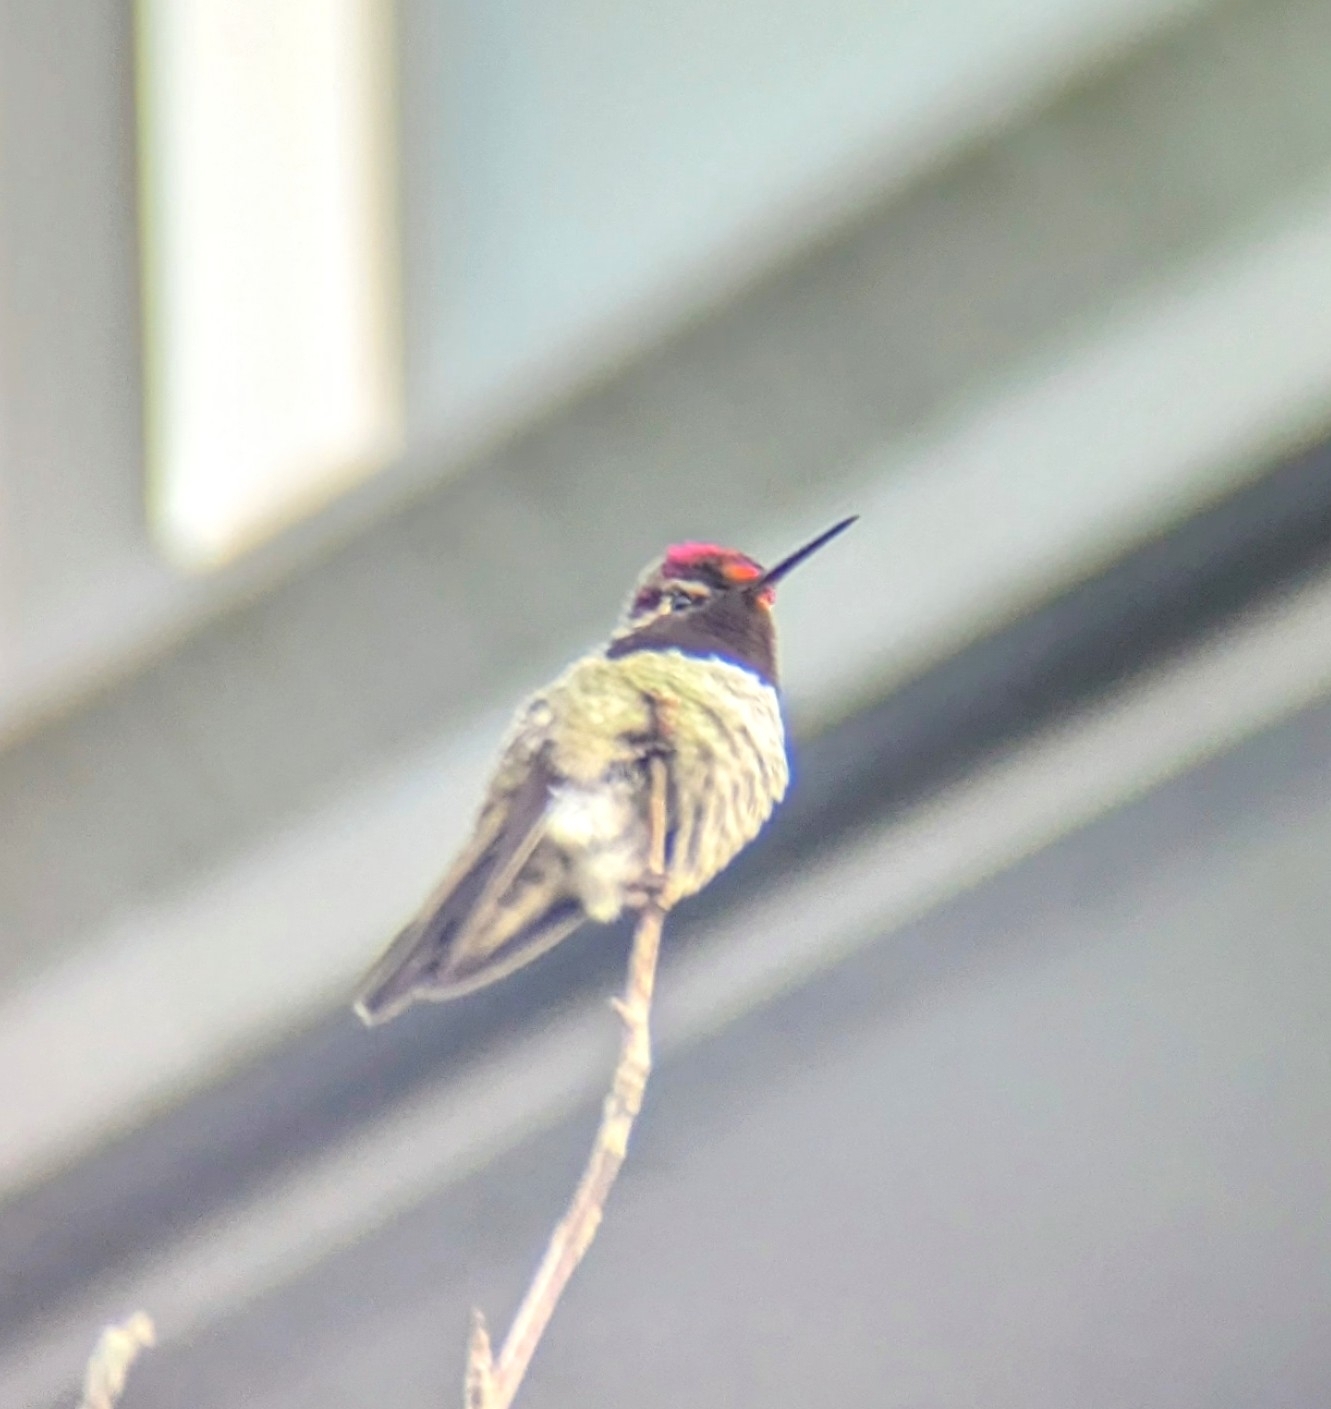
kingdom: Animalia
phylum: Chordata
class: Aves
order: Apodiformes
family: Trochilidae
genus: Calypte
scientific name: Calypte anna
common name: Anna's hummingbird
